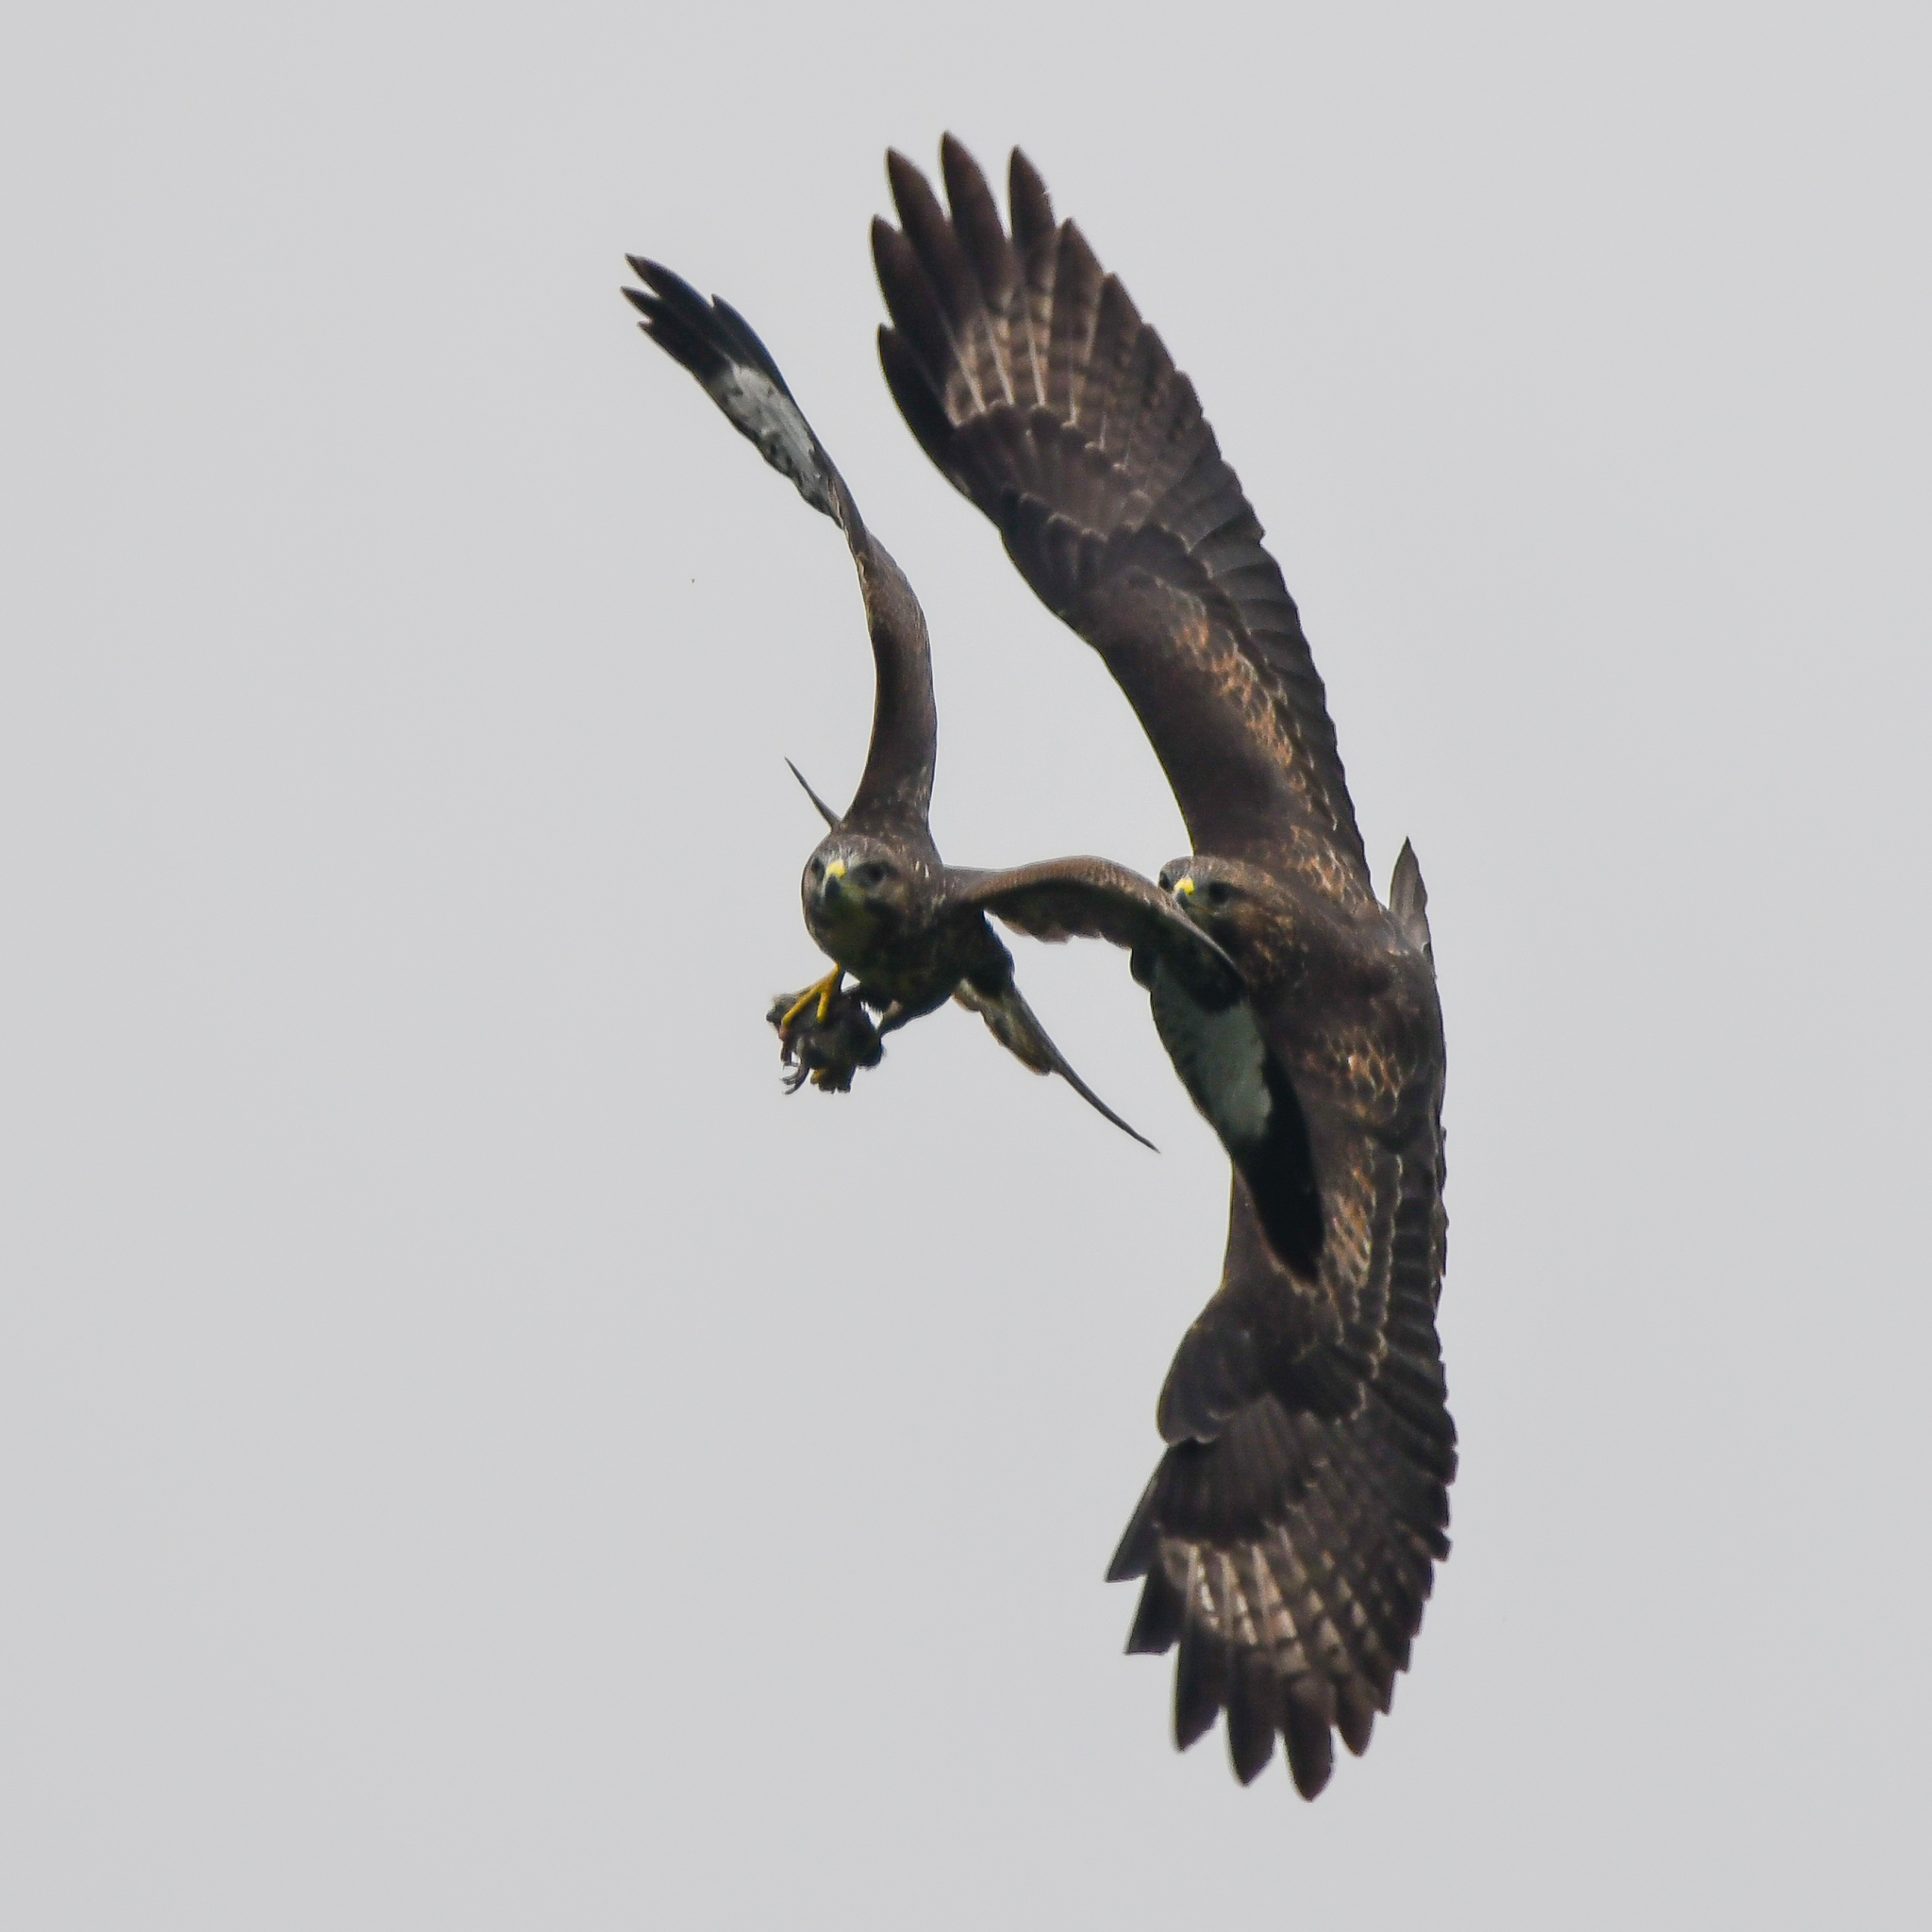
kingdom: Animalia
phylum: Chordata
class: Aves
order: Accipitriformes
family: Accipitridae
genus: Buteo
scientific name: Buteo buteo
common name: Common buzzard
